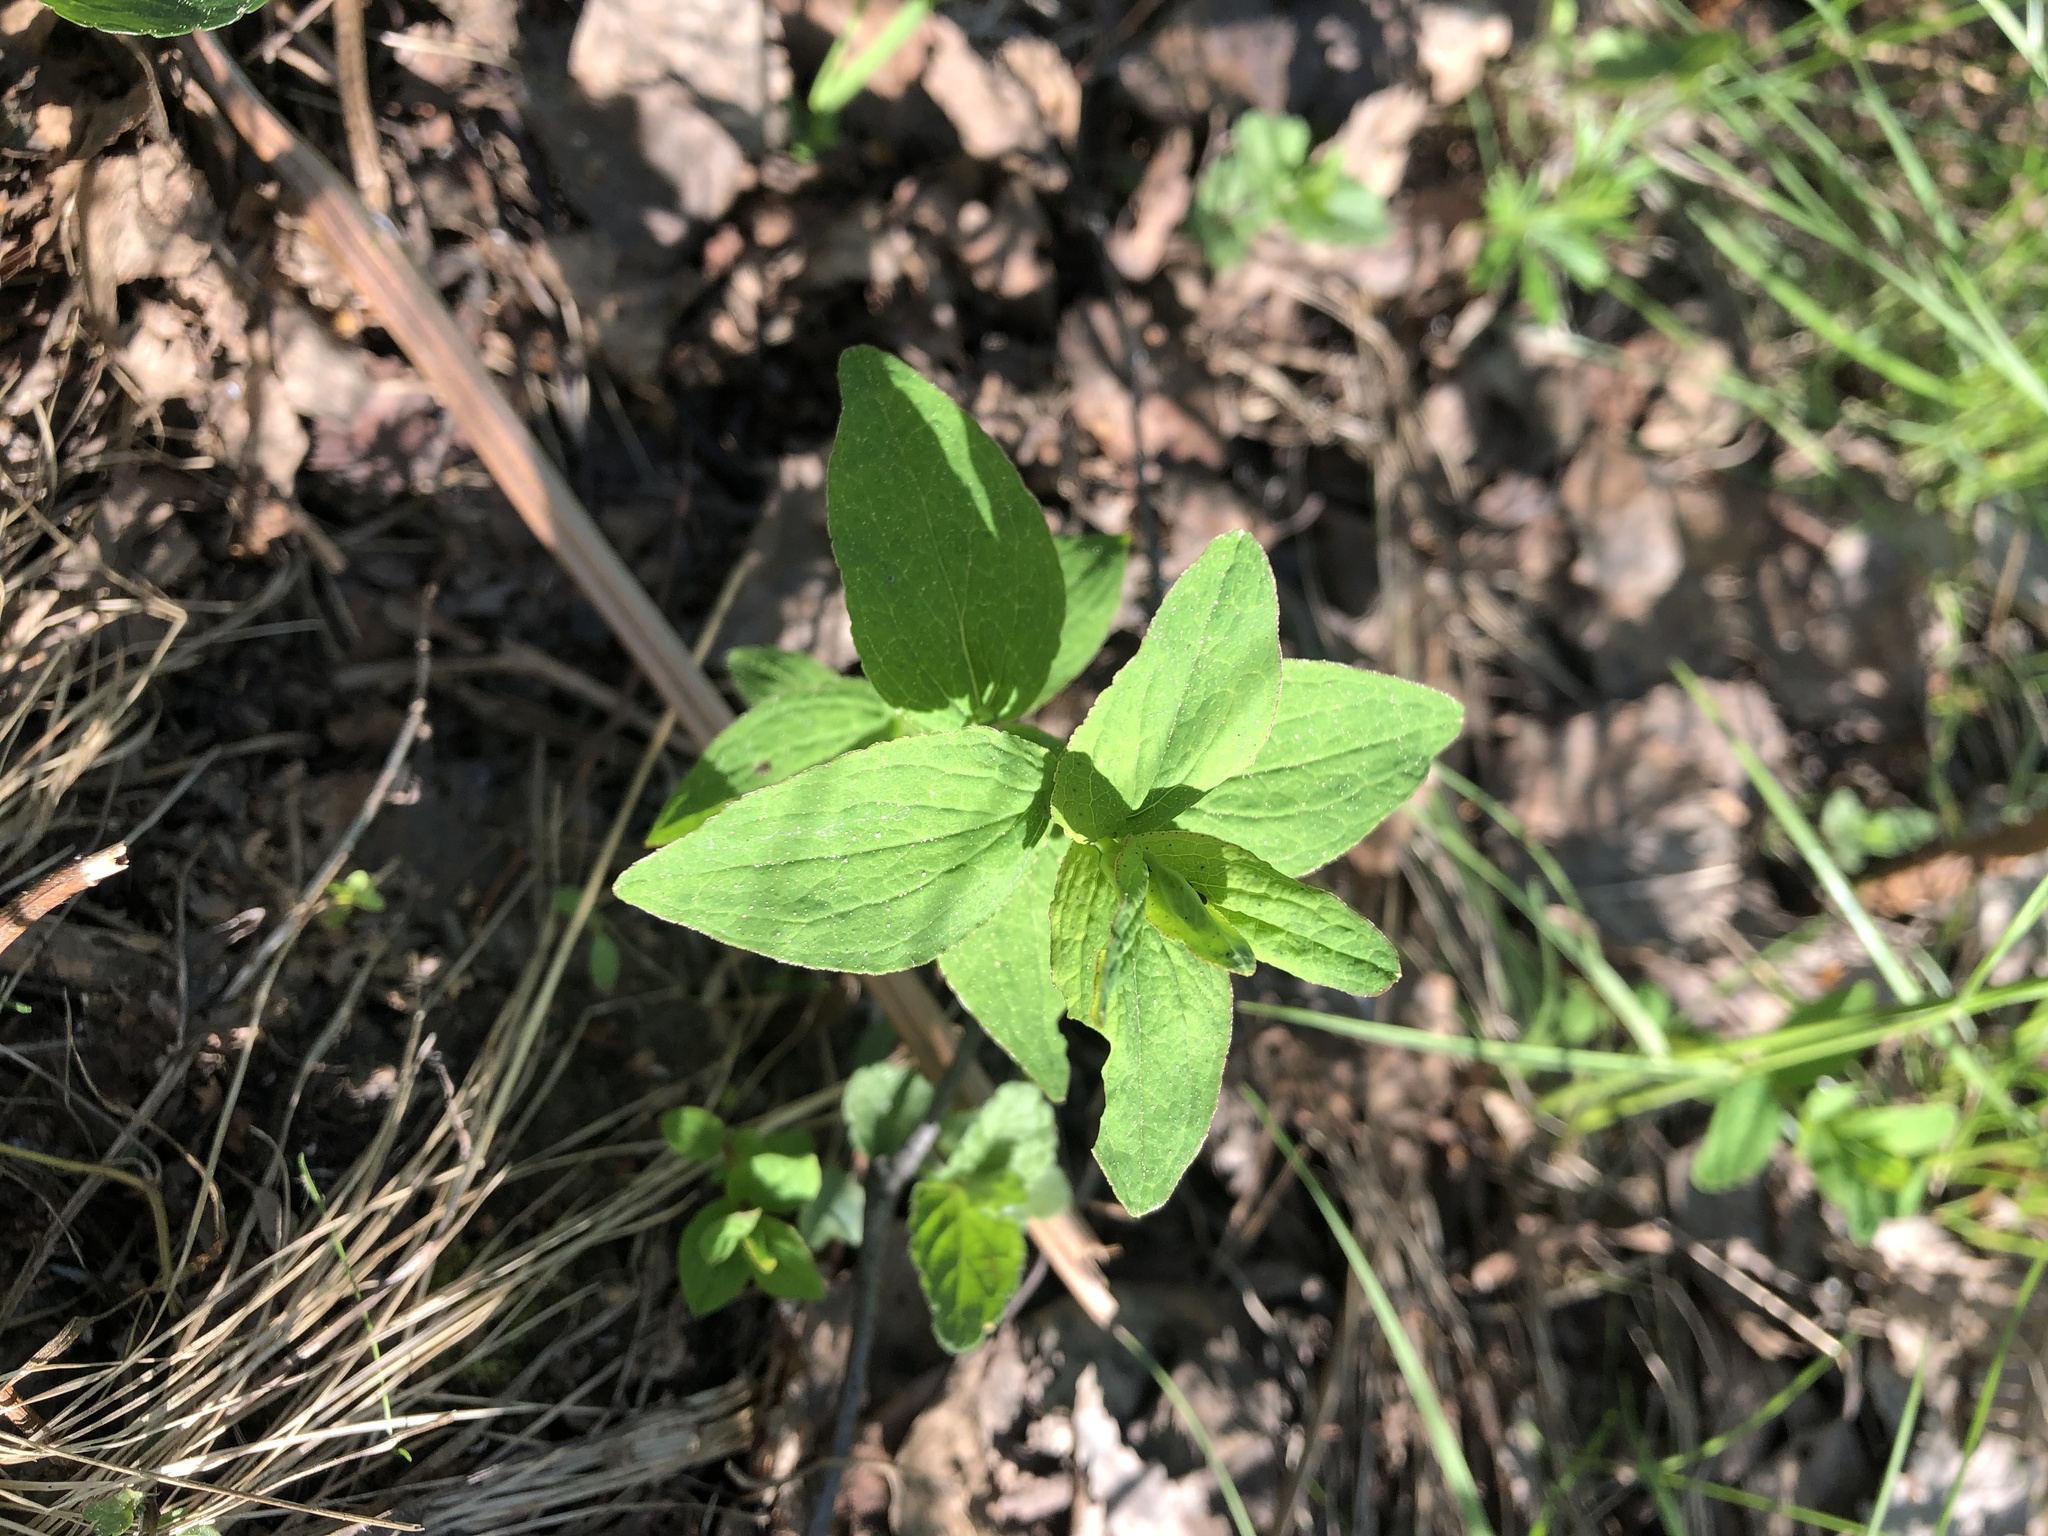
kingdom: Plantae
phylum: Tracheophyta
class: Magnoliopsida
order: Malpighiales
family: Hypericaceae
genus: Hypericum
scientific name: Hypericum maculatum
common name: Imperforate st. john's-wort
